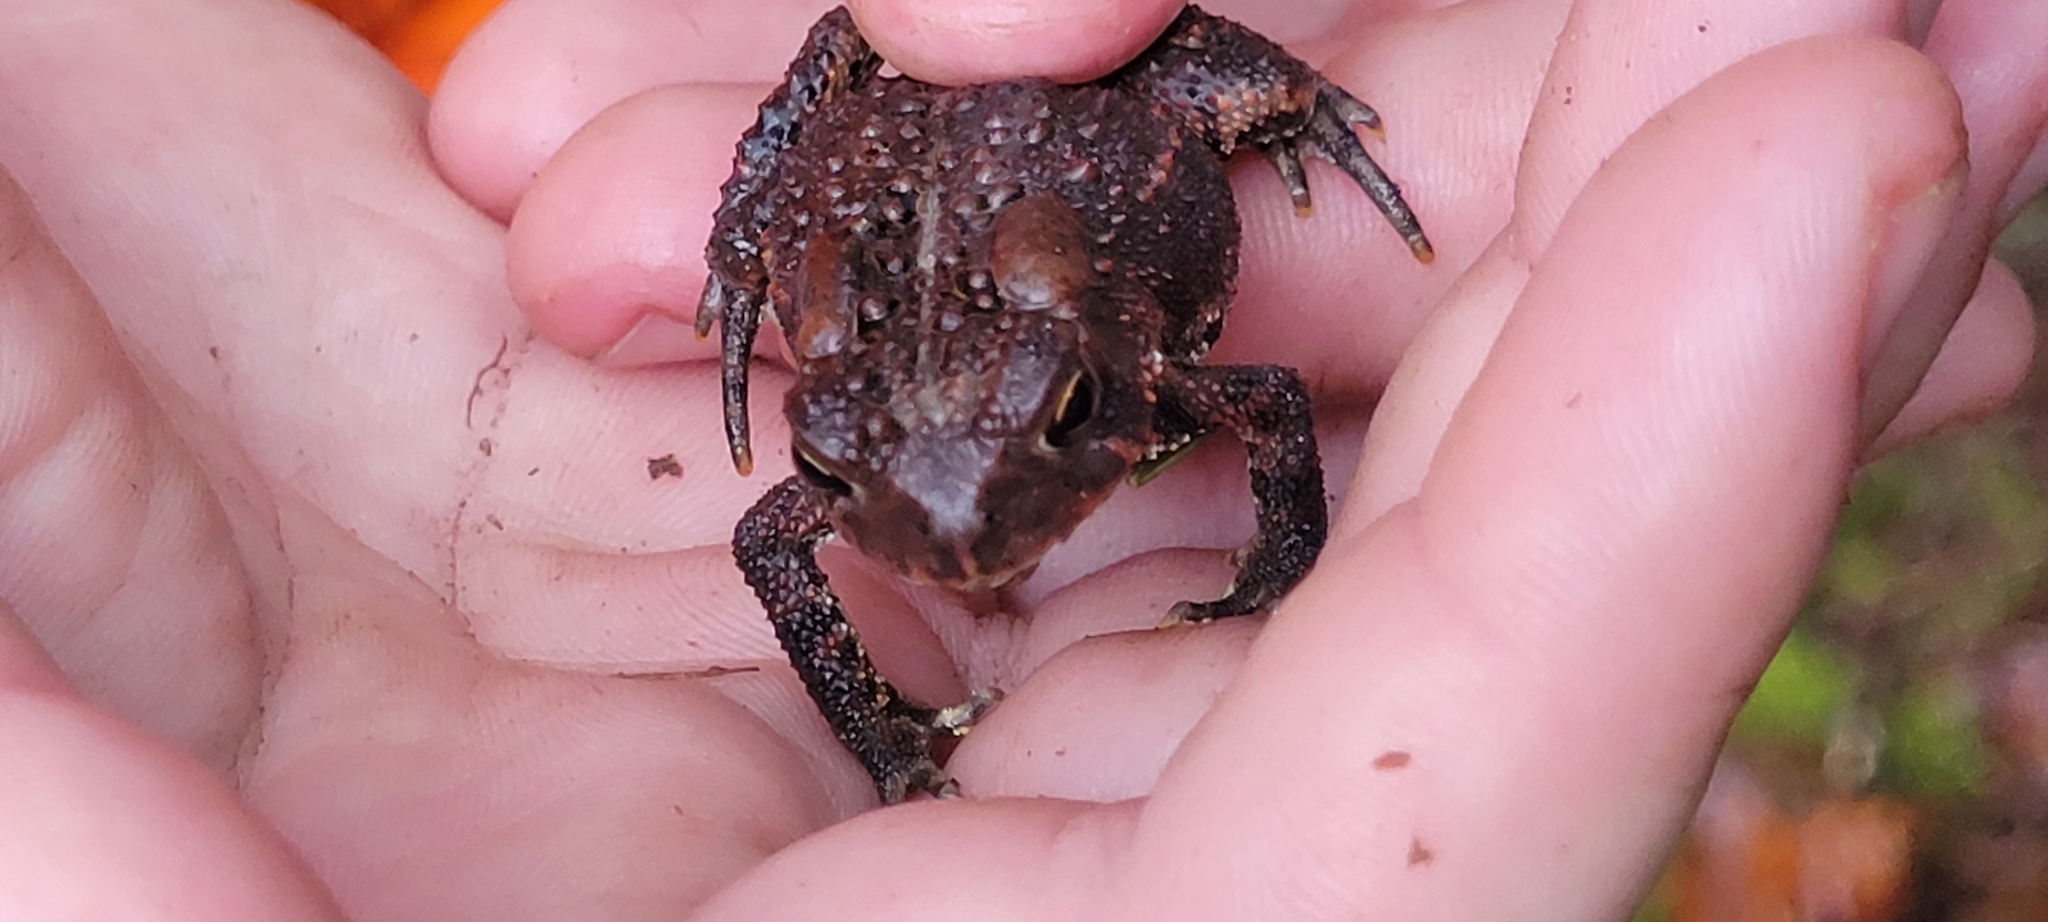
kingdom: Animalia
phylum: Chordata
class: Amphibia
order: Anura
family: Bufonidae
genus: Anaxyrus
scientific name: Anaxyrus americanus
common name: American toad
